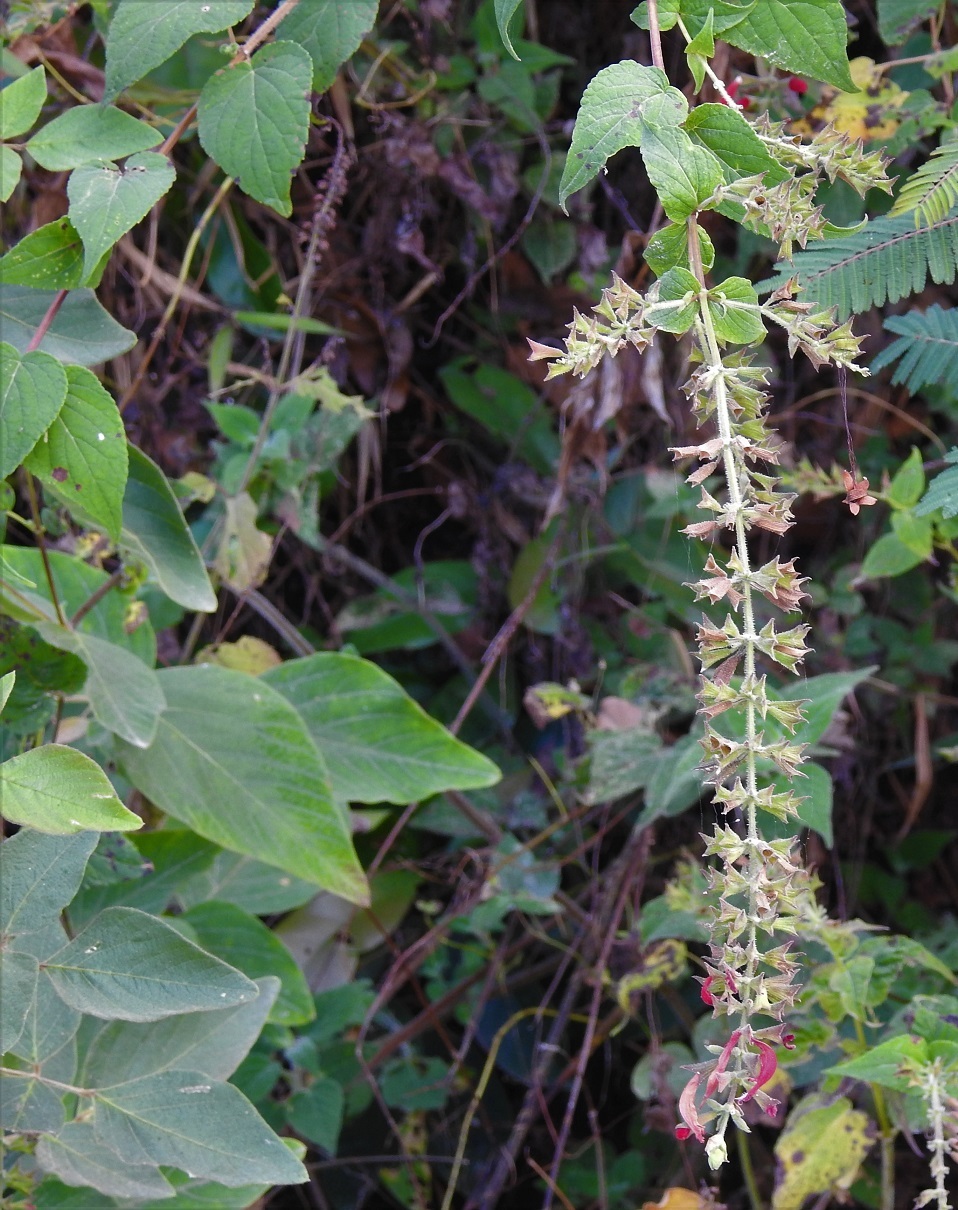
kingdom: Plantae
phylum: Tracheophyta
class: Magnoliopsida
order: Lamiales
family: Lamiaceae
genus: Salvia
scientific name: Salvia holwayi
